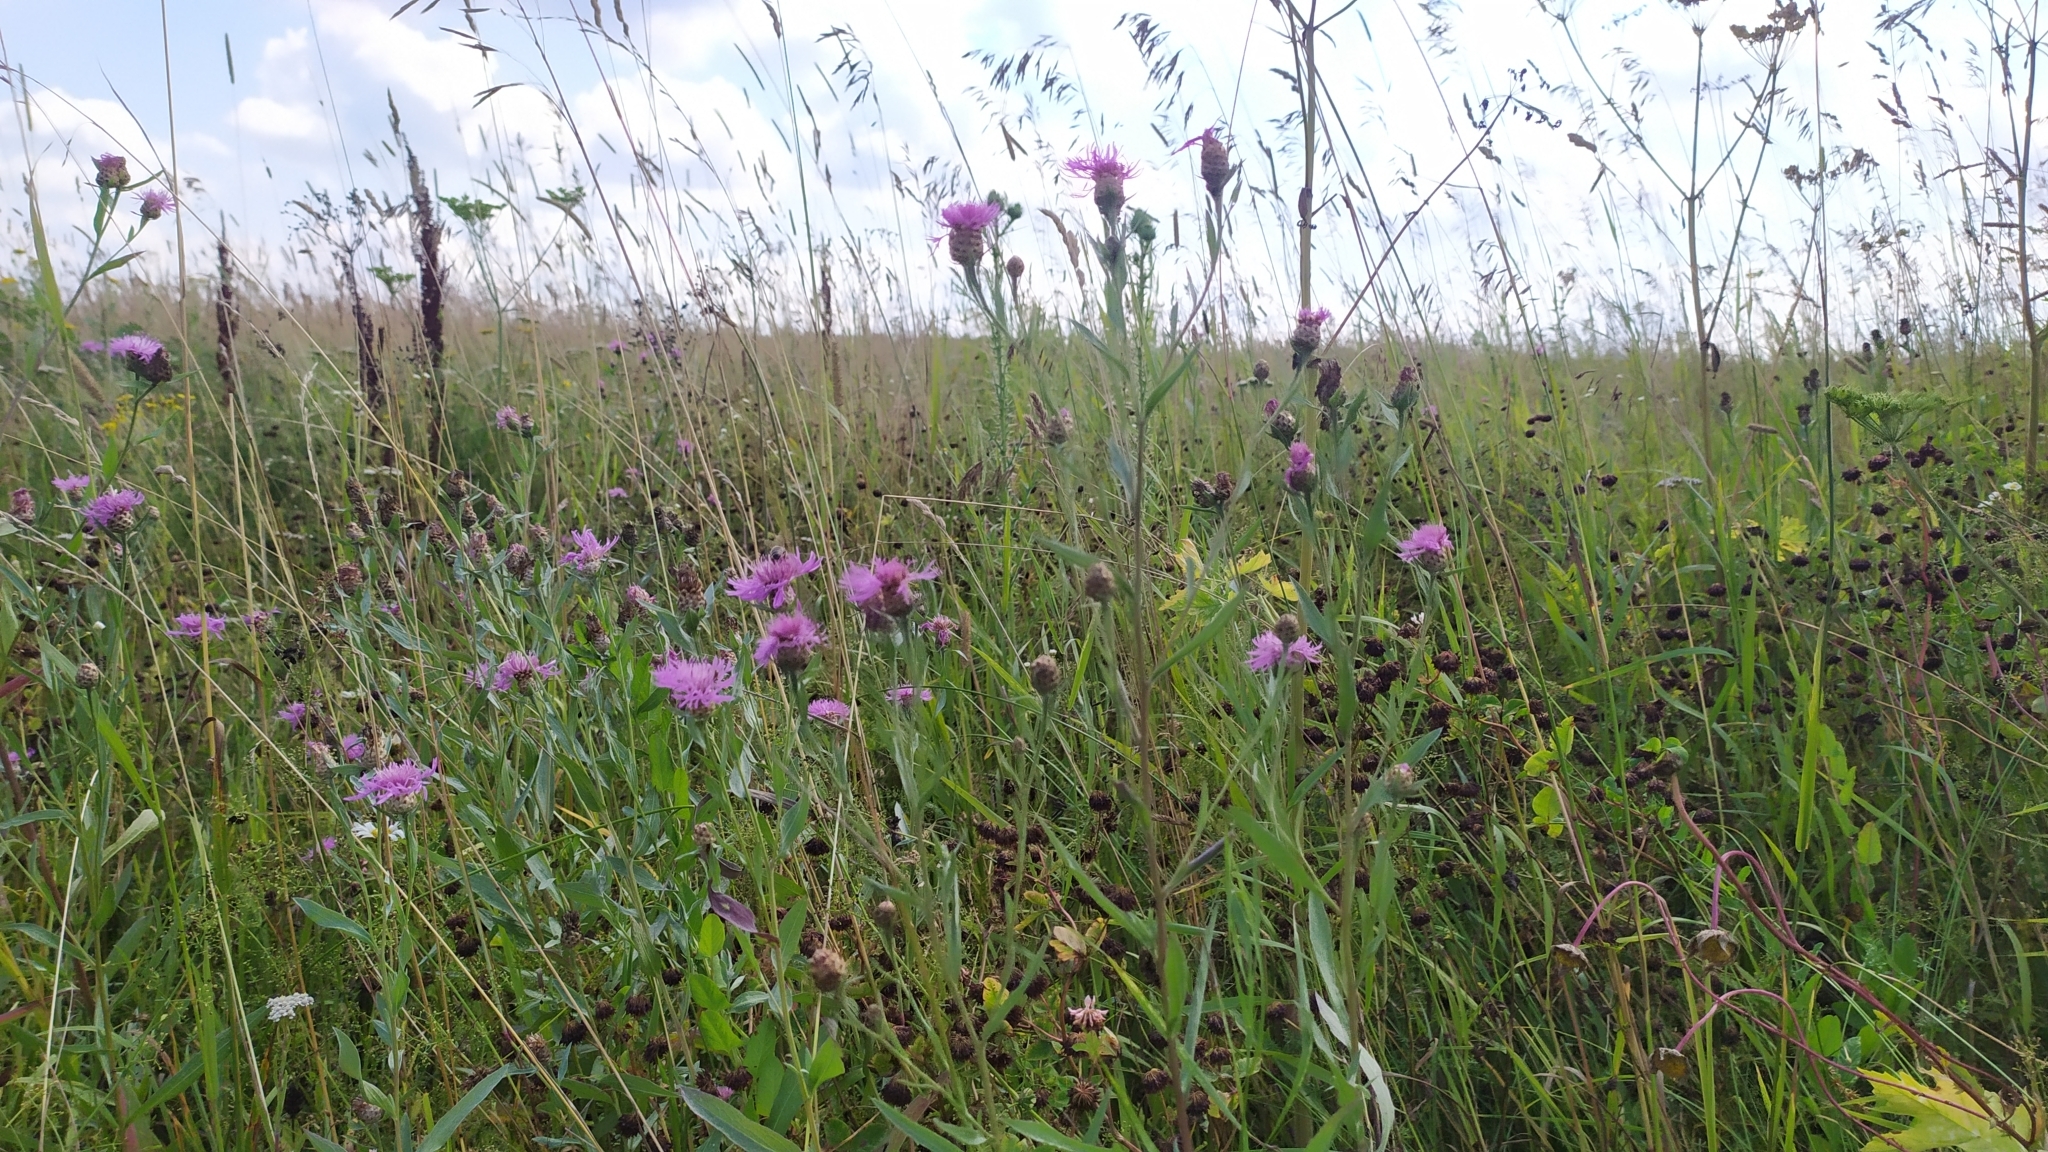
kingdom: Plantae
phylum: Tracheophyta
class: Magnoliopsida
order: Asterales
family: Asteraceae
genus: Centaurea
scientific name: Centaurea jacea
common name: Brown knapweed
